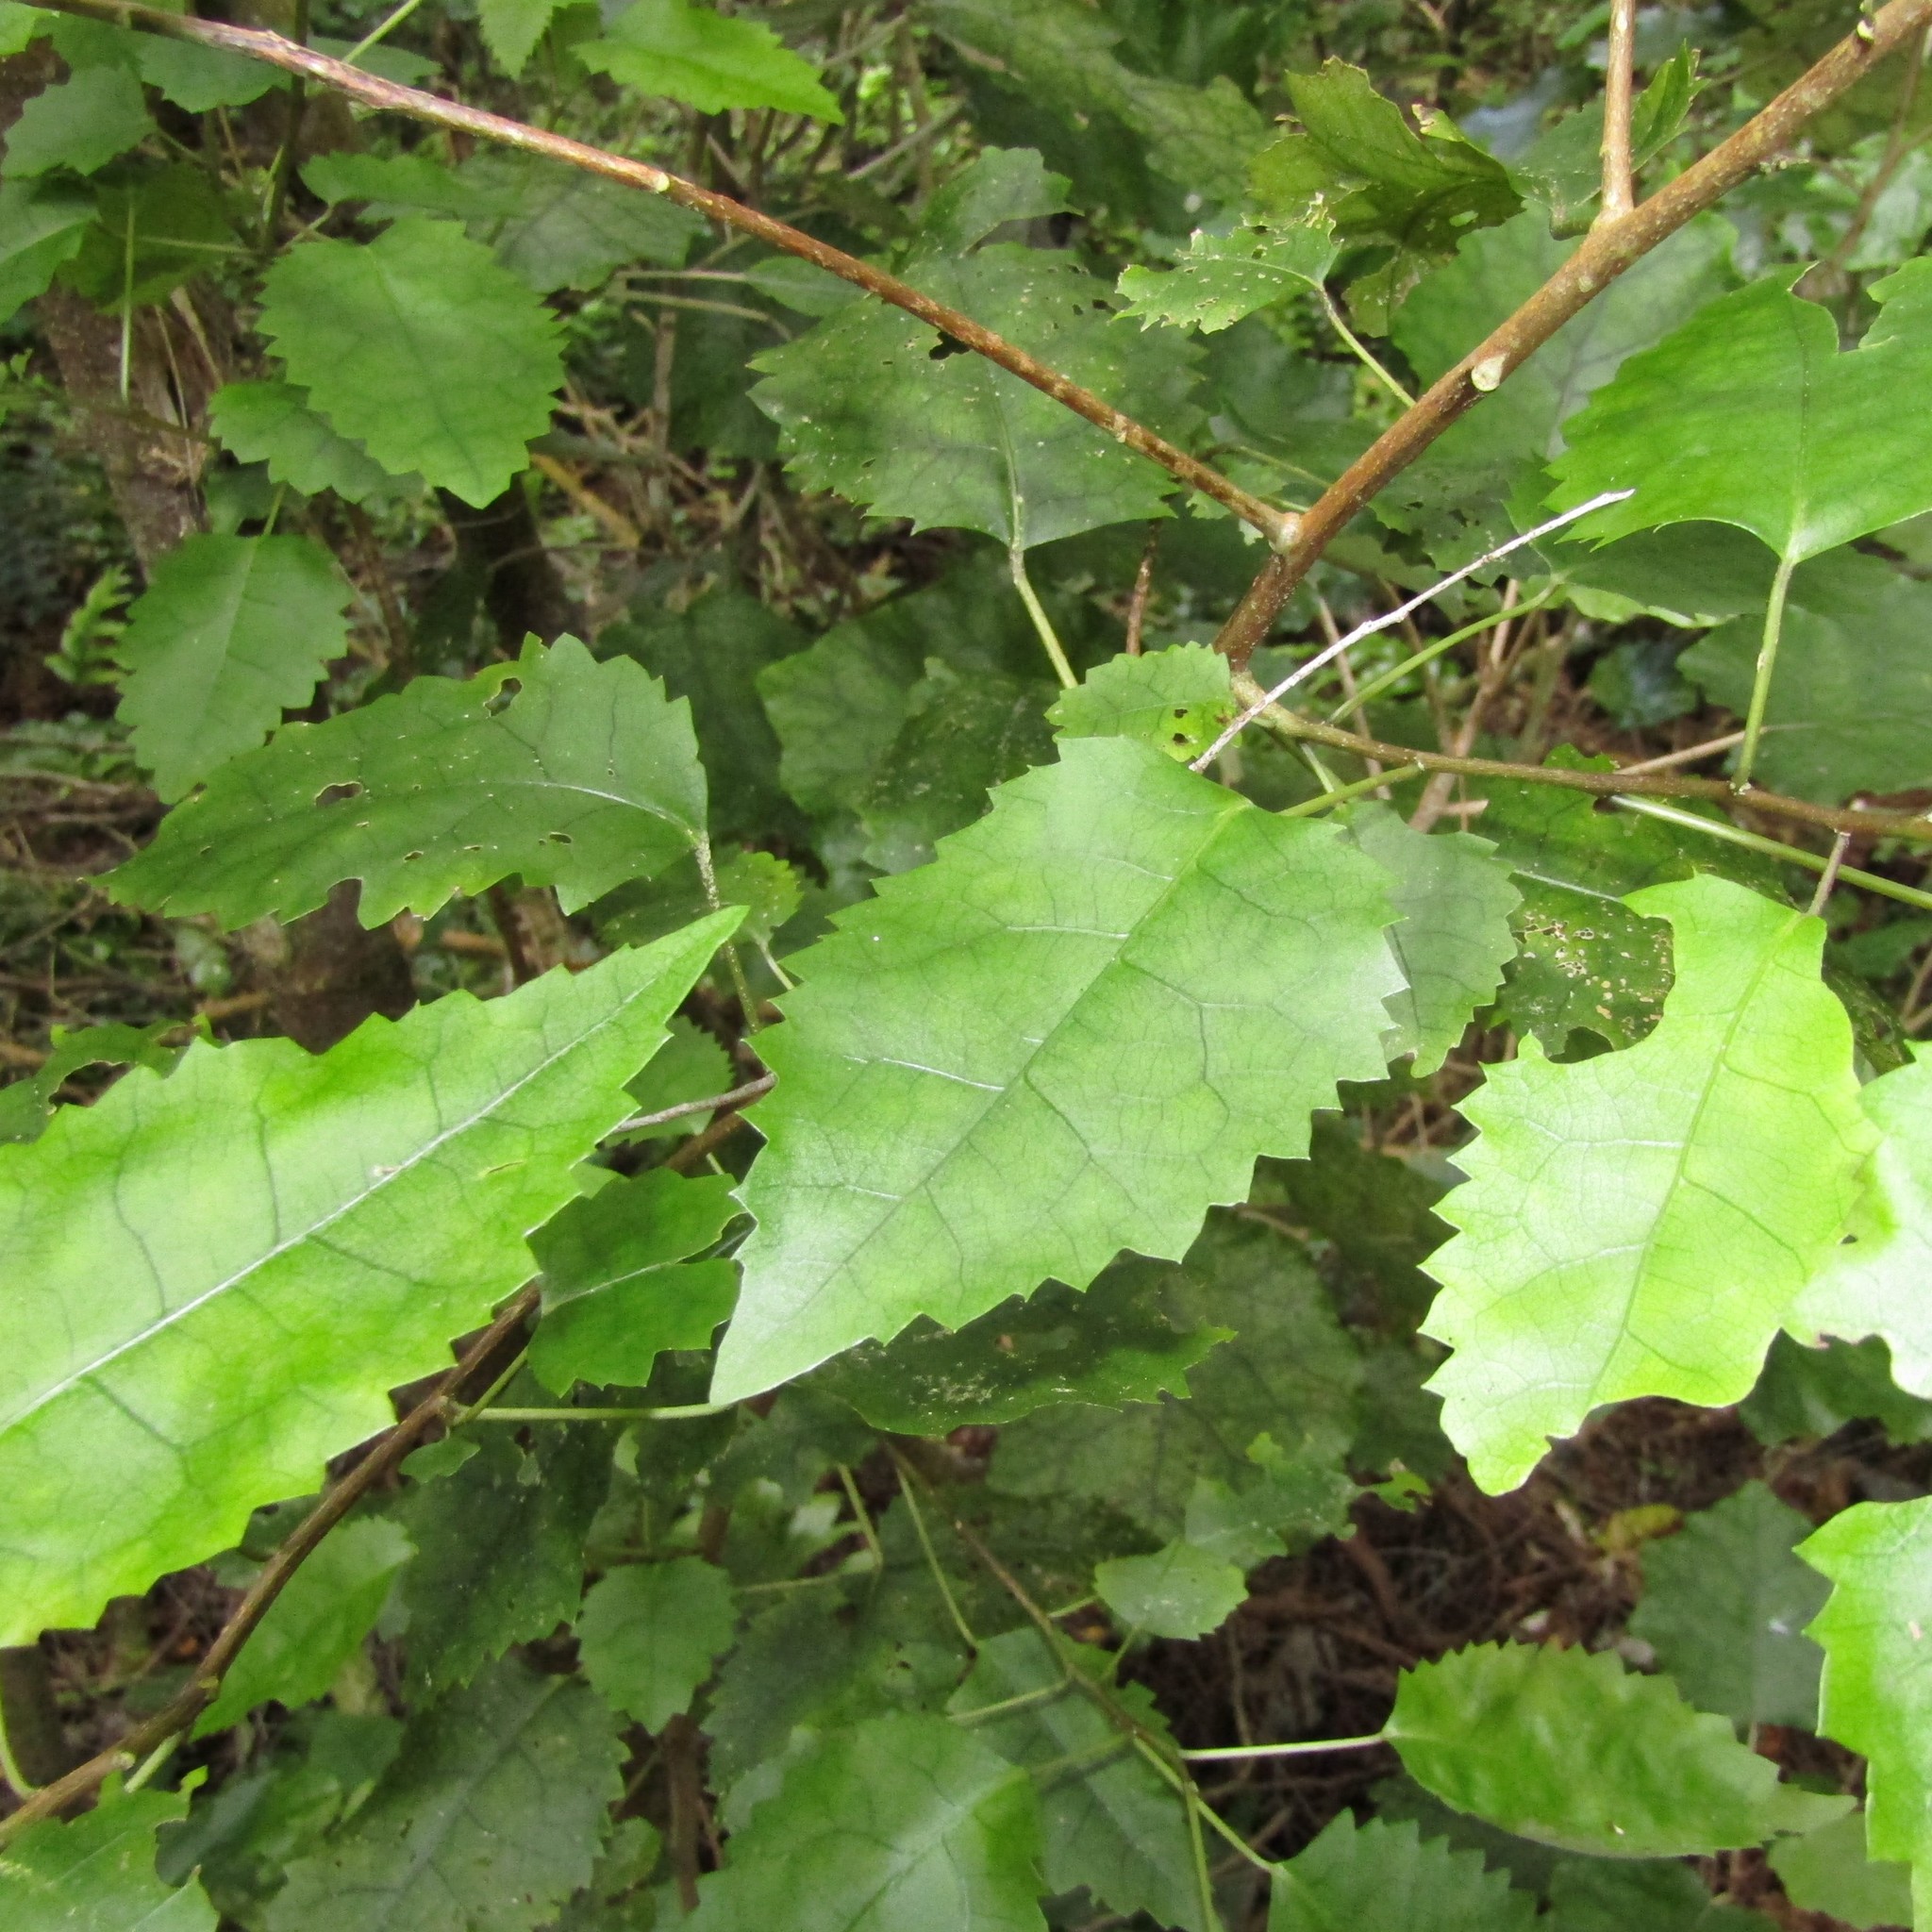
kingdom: Plantae
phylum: Tracheophyta
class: Magnoliopsida
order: Malvales
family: Malvaceae
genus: Hoheria
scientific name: Hoheria populnea
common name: Lacebark
